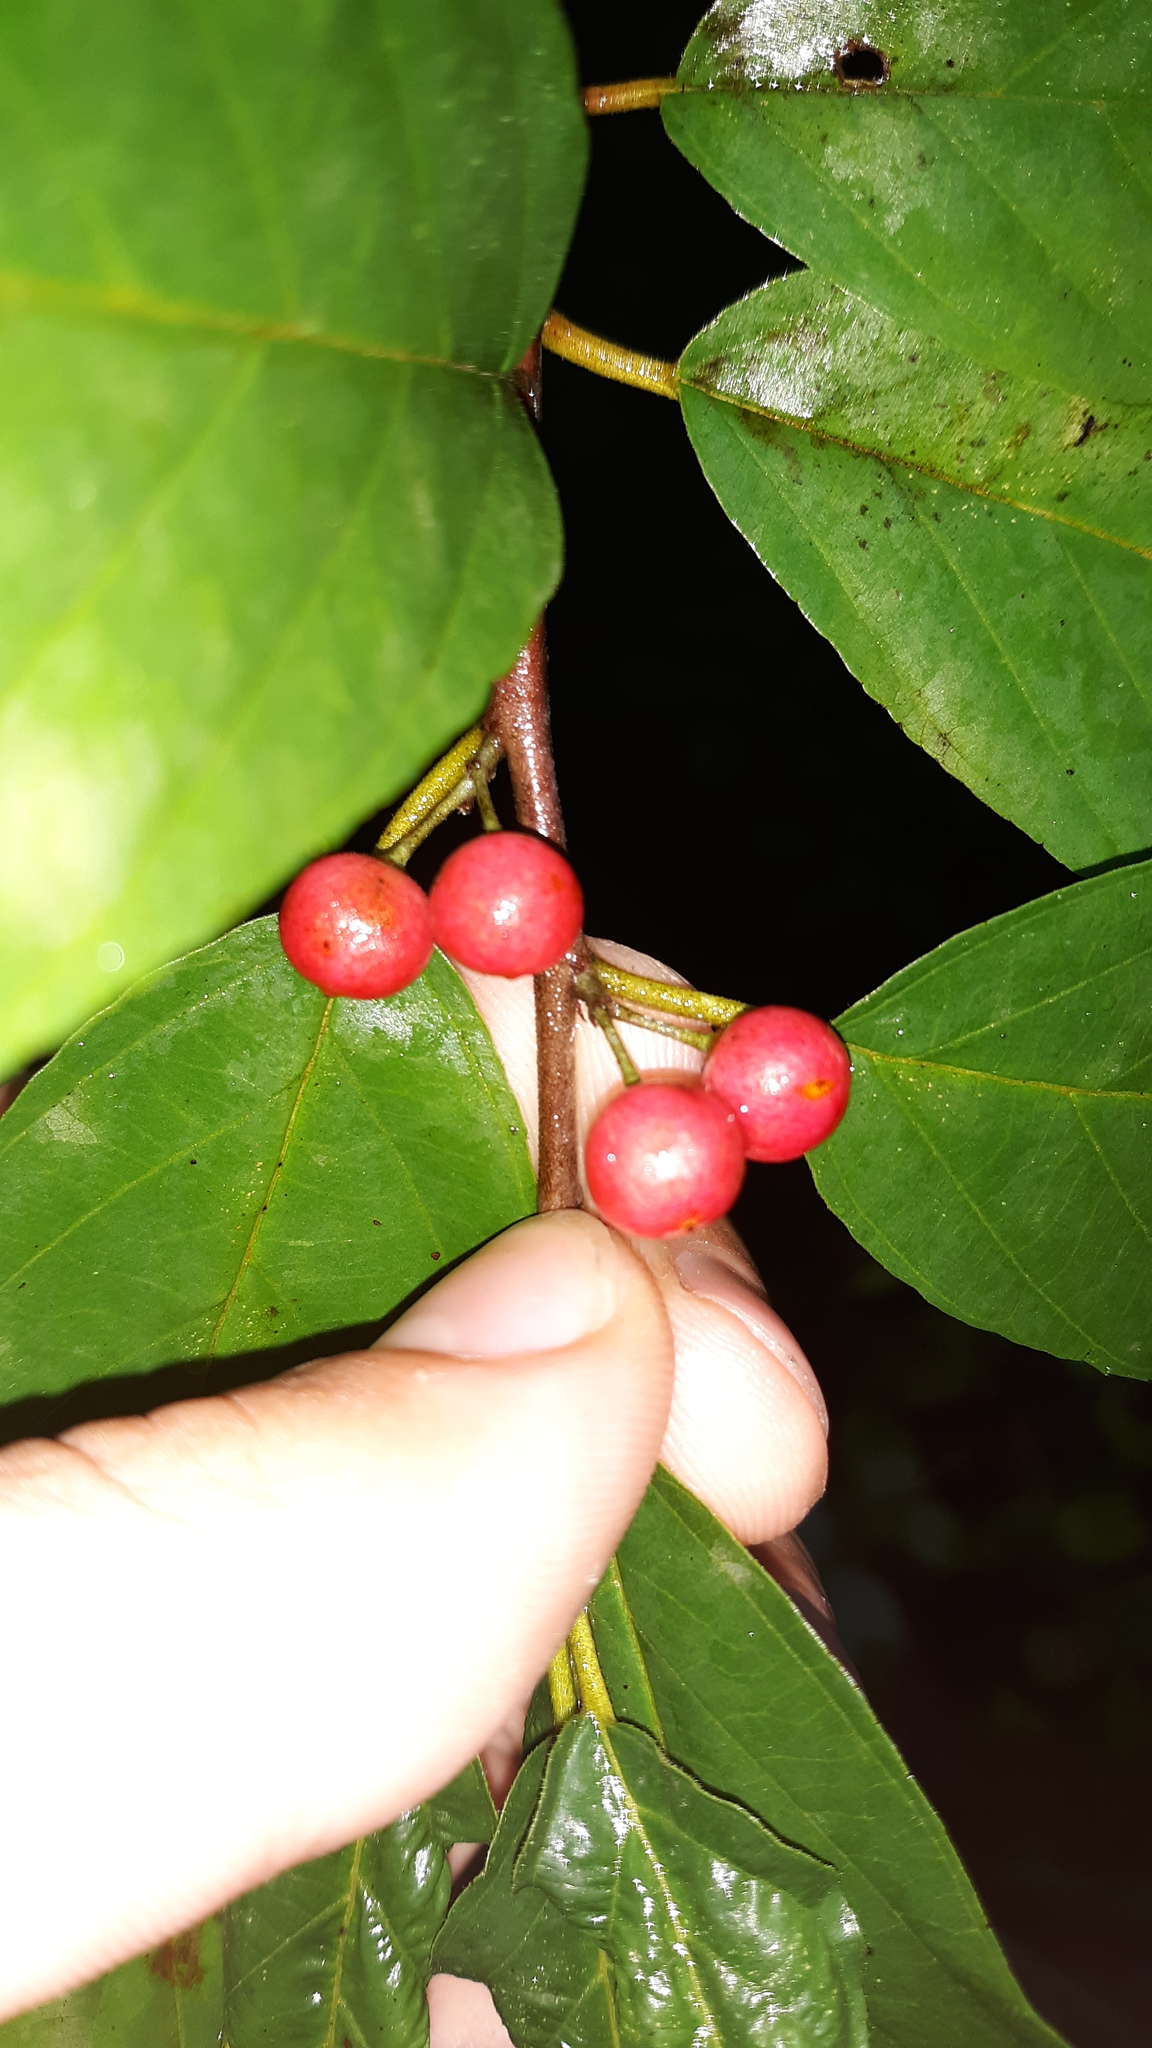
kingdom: Plantae
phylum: Tracheophyta
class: Magnoliopsida
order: Rosales
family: Rhamnaceae
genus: Frangula
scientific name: Frangula caroliniana
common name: Carolina buckthorn
